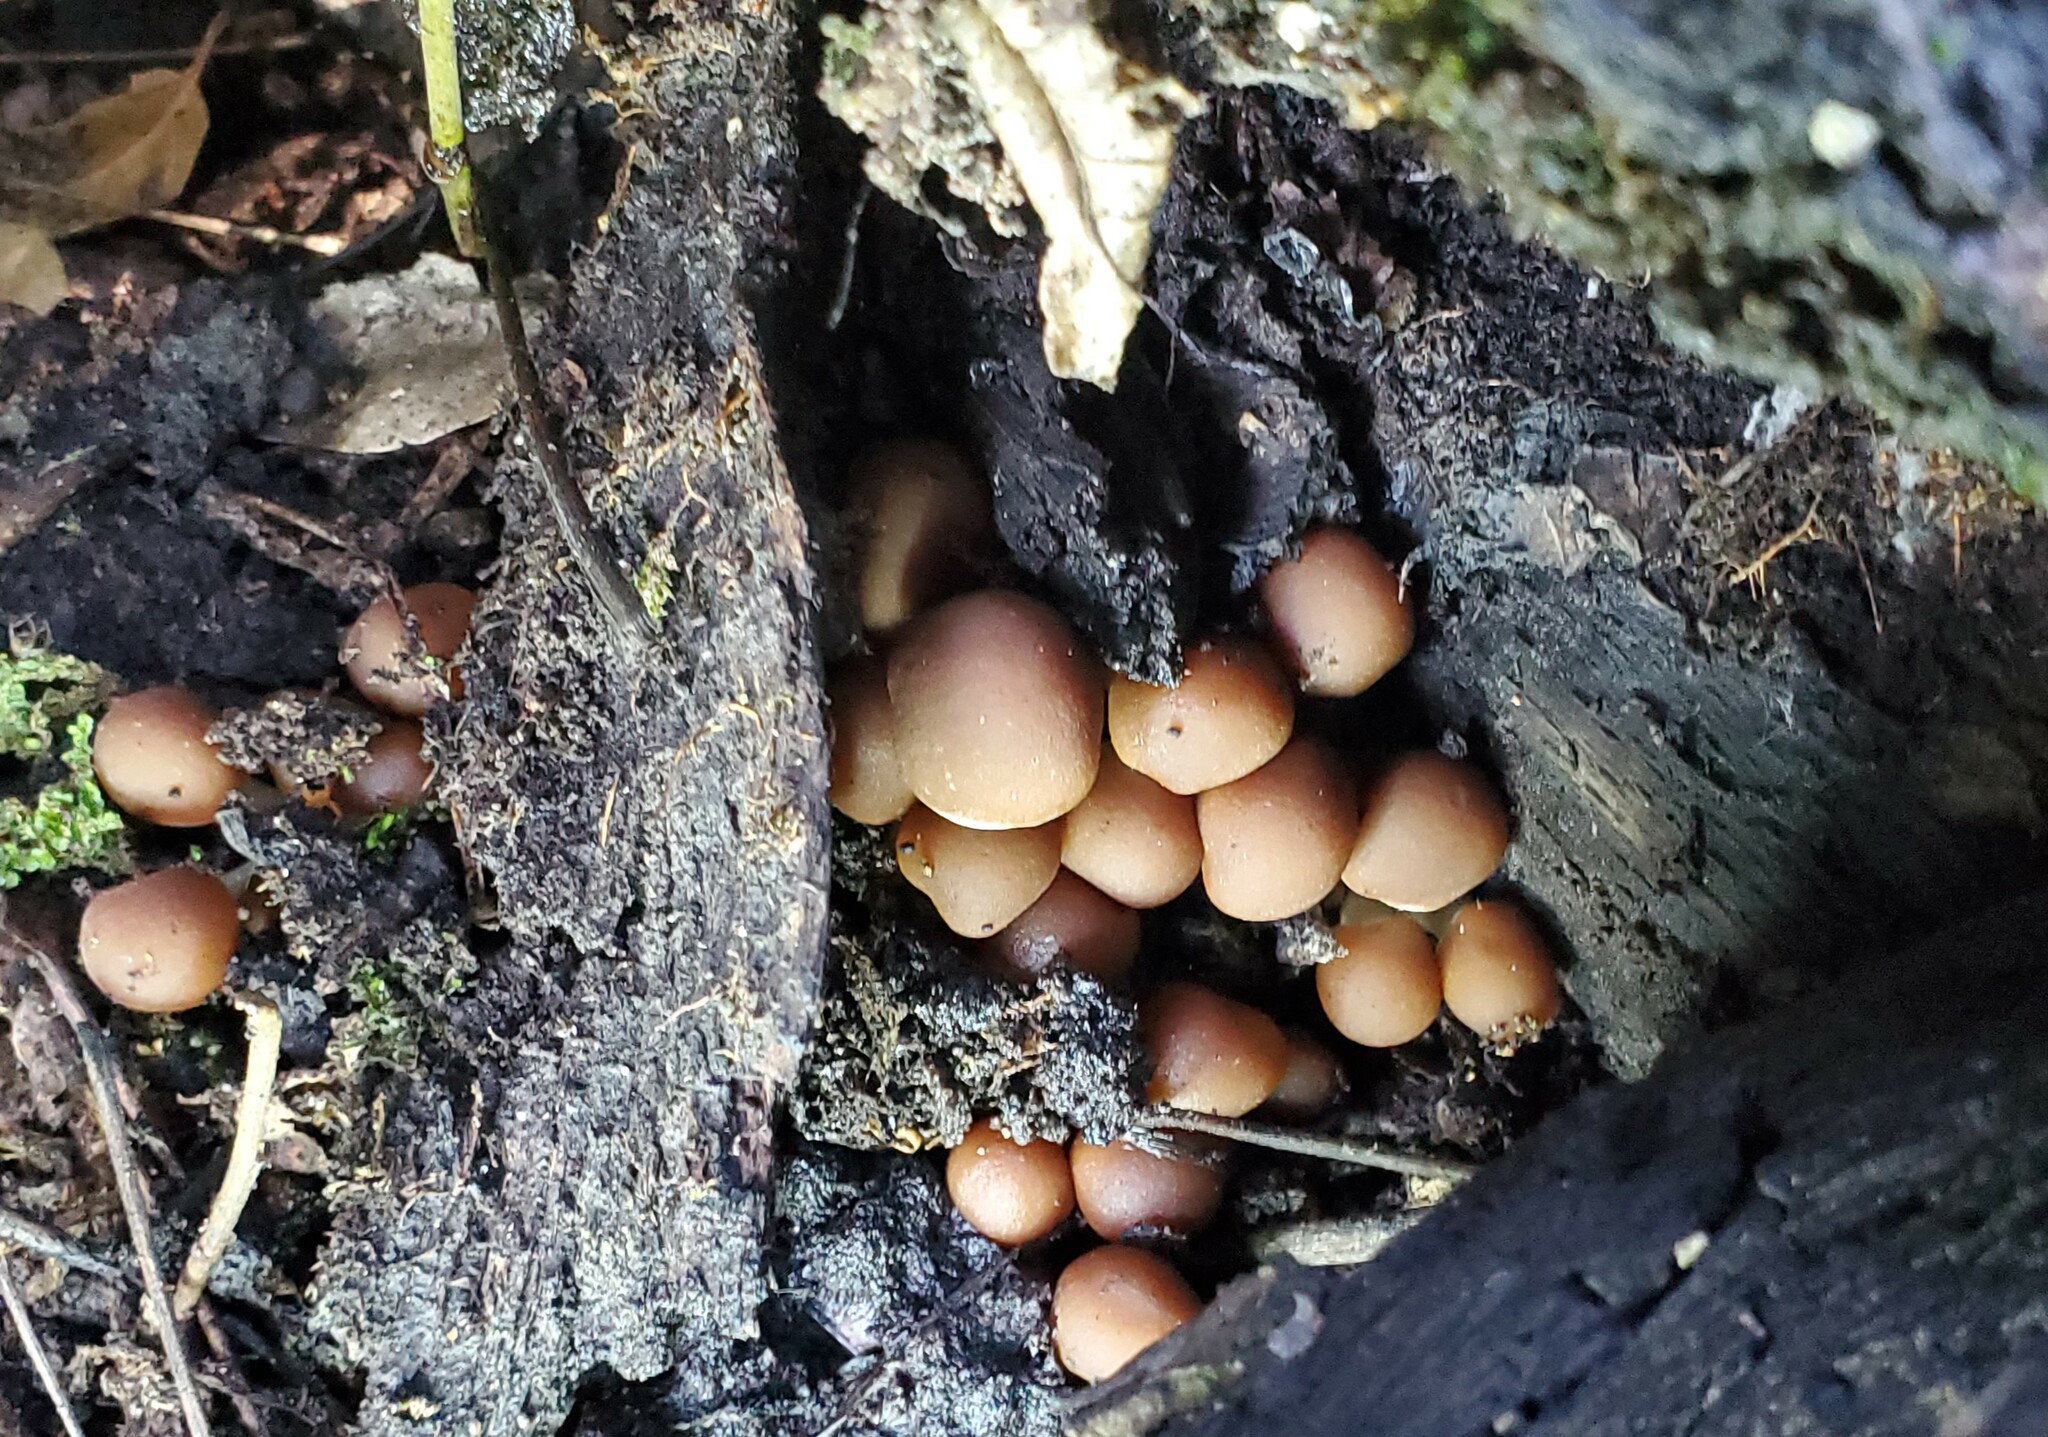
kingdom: Fungi
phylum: Basidiomycota
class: Agaricomycetes
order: Agaricales
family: Psathyrellaceae
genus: Psathyrella
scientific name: Psathyrella piluliformis
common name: Common stump brittlestem
